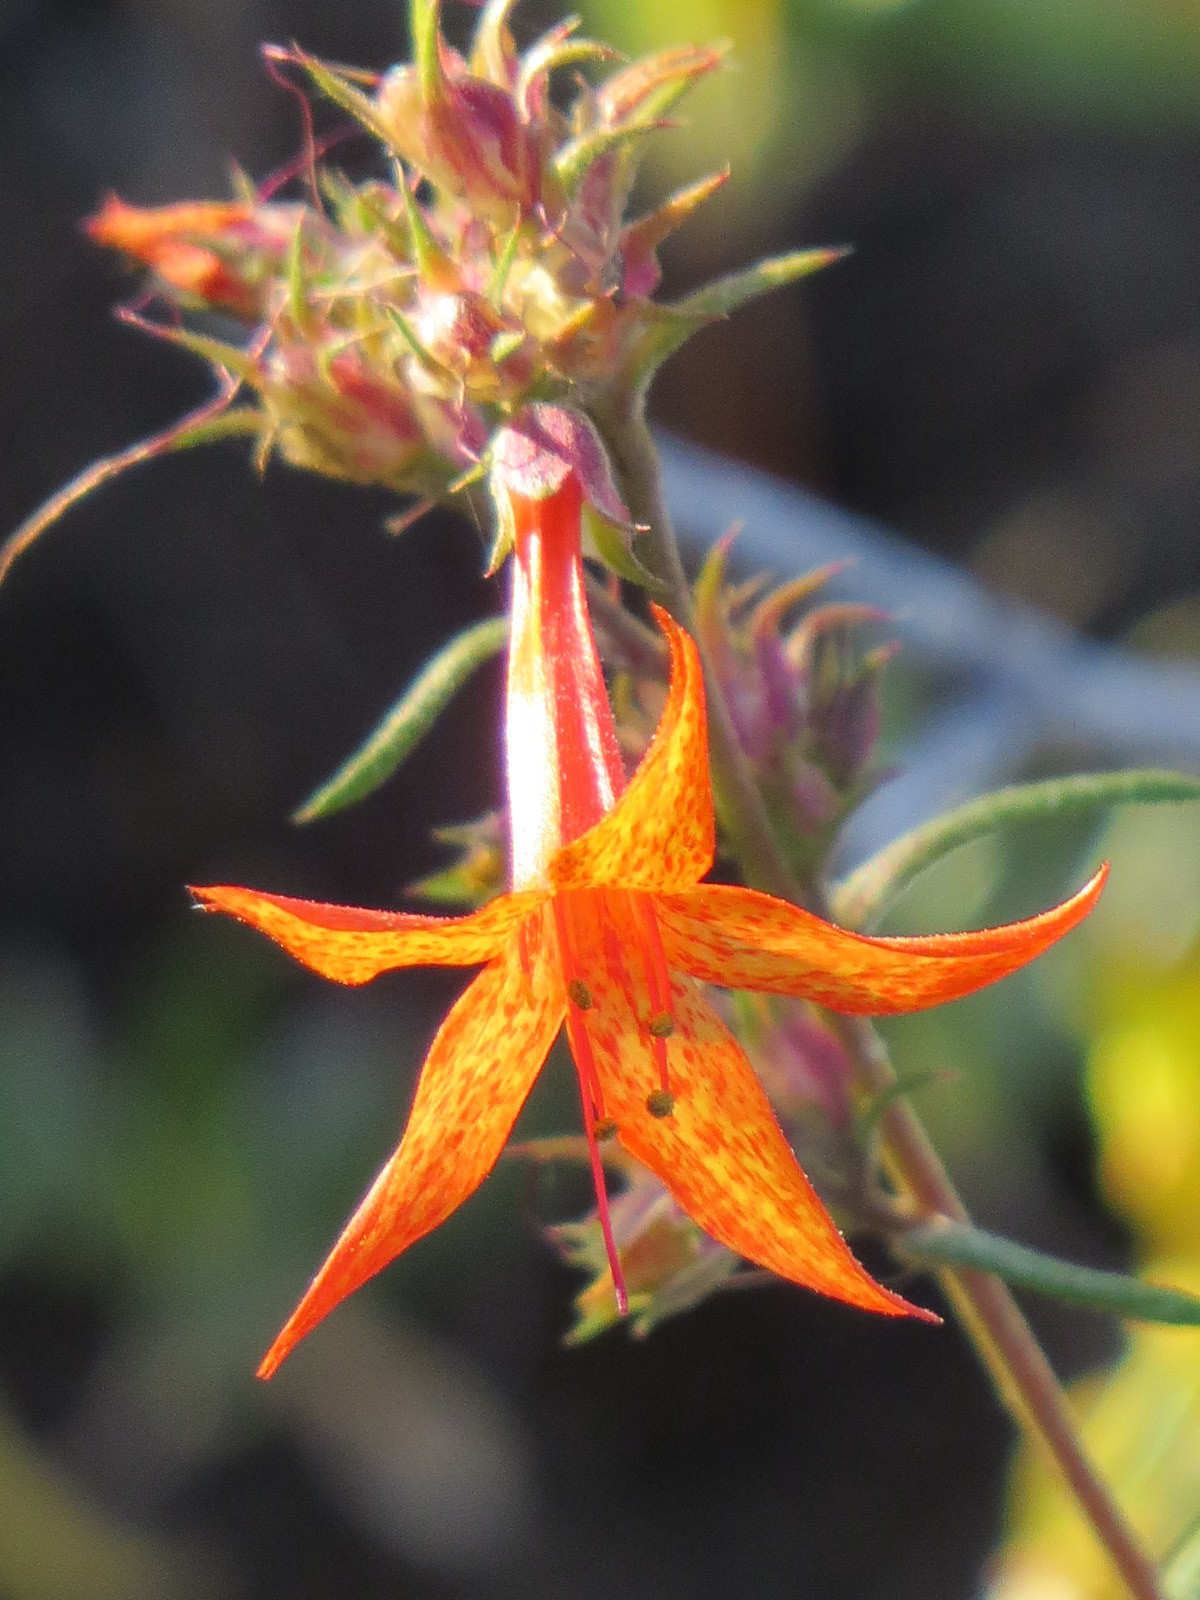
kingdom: Plantae
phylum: Tracheophyta
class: Magnoliopsida
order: Ericales
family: Polemoniaceae
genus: Ipomopsis
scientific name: Ipomopsis aggregata
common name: Scarlet gilia
